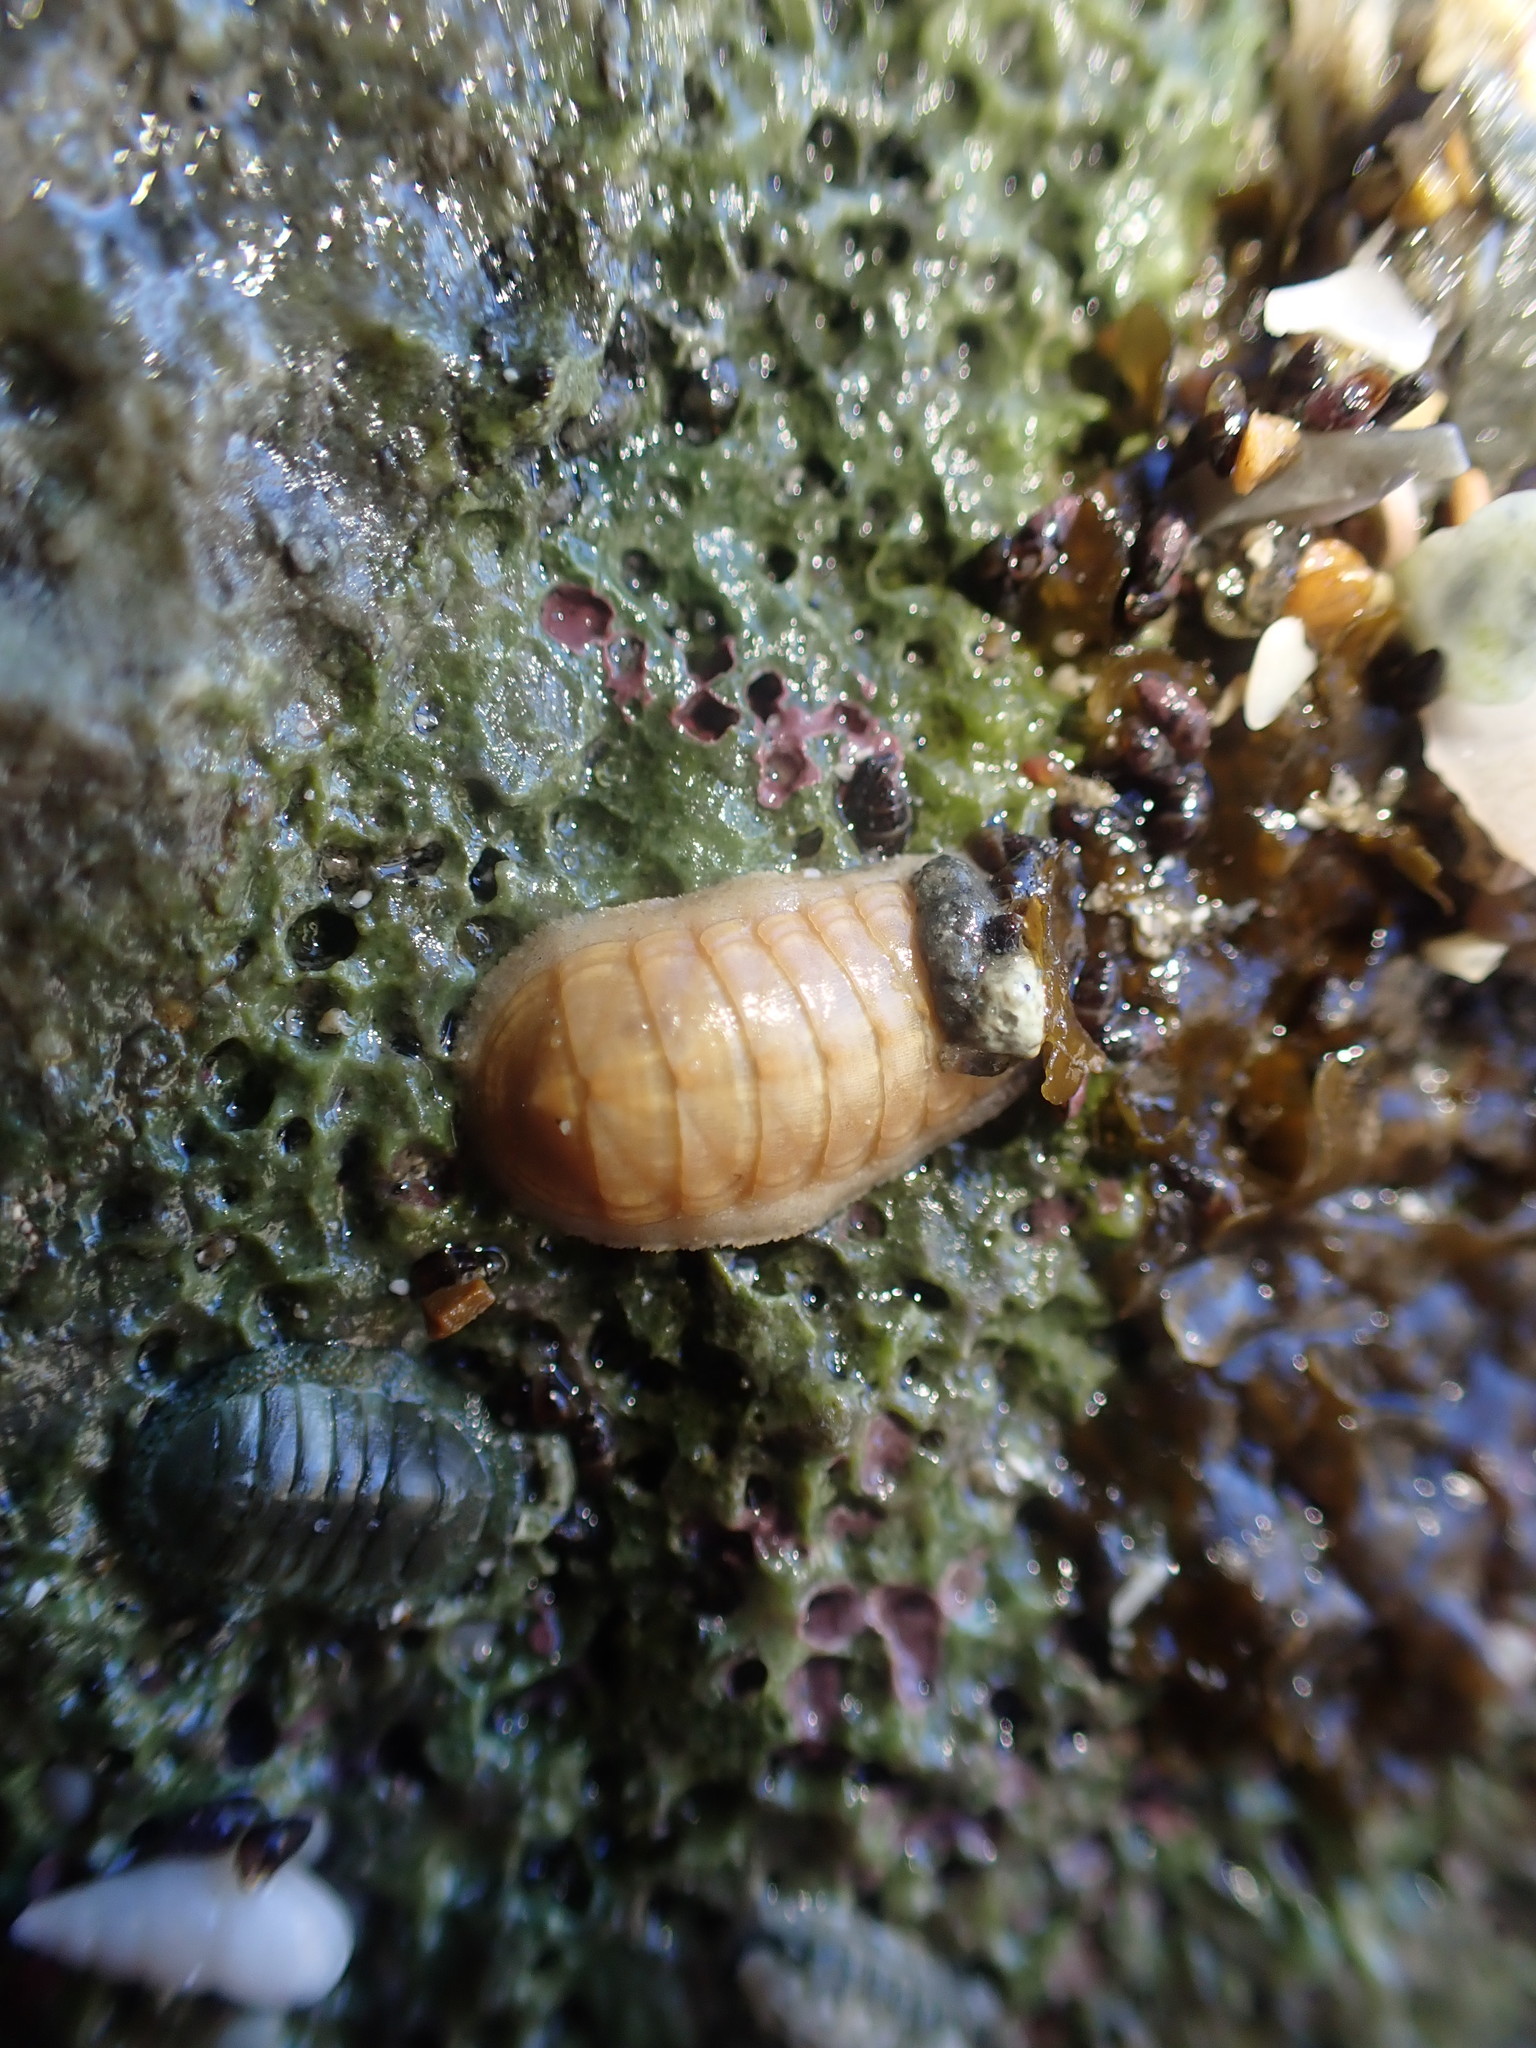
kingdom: Animalia
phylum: Mollusca
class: Polyplacophora
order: Lepidopleurida
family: Leptochitonidae
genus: Leptochiton
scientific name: Leptochiton inquinatus
